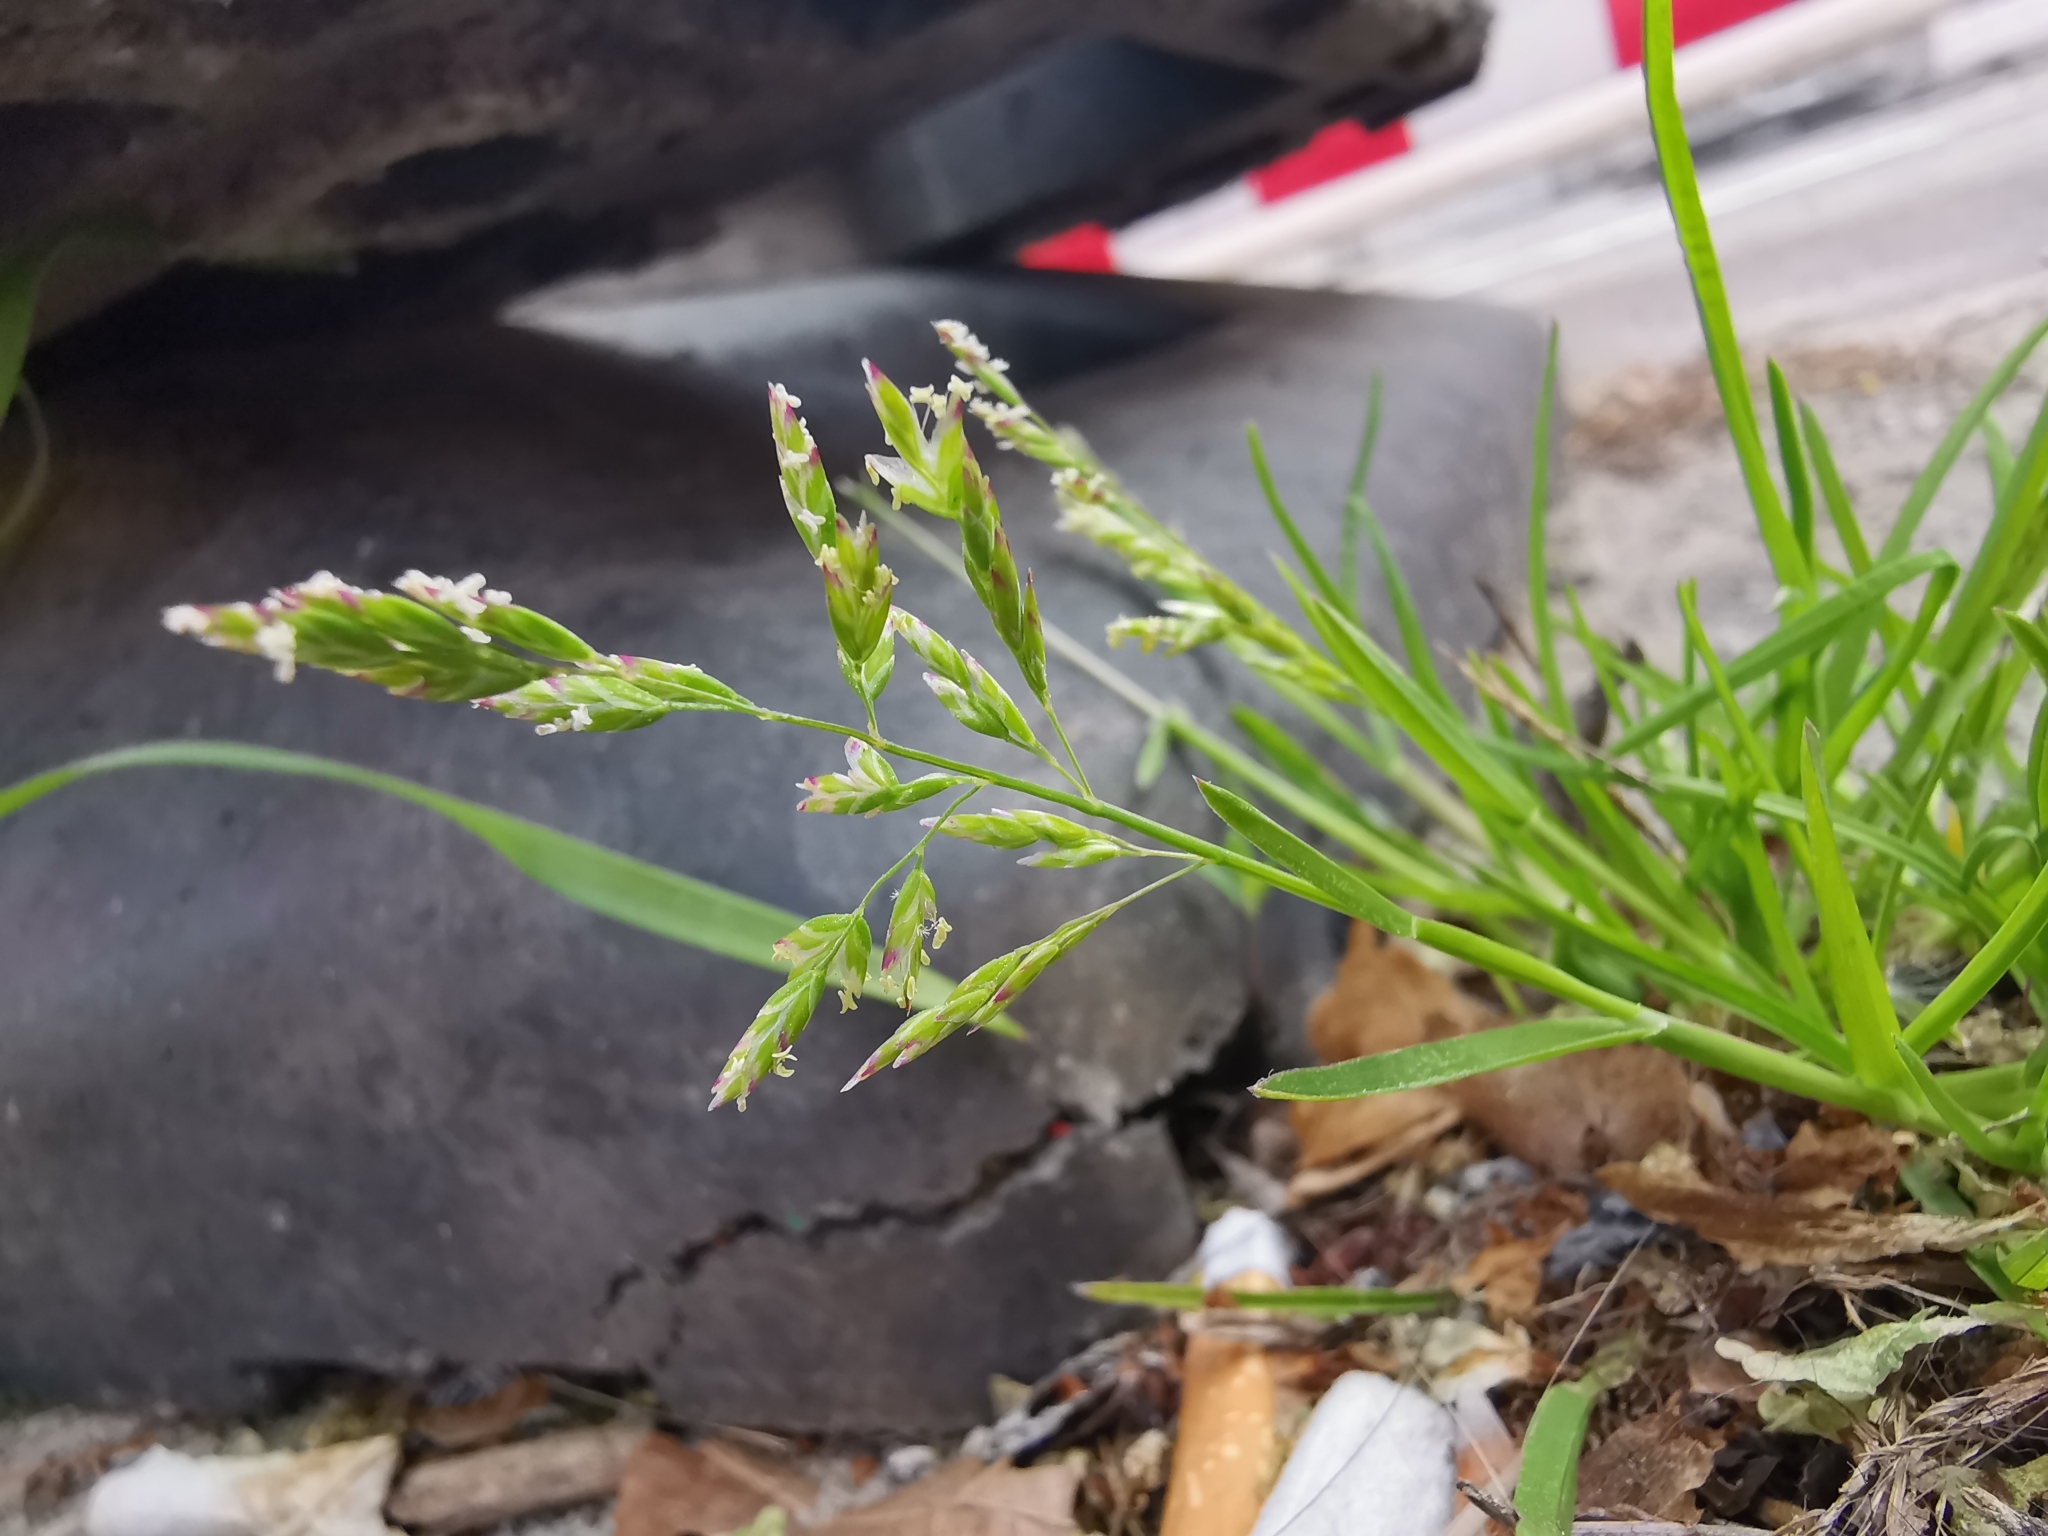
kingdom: Plantae
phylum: Tracheophyta
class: Liliopsida
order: Poales
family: Poaceae
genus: Poa
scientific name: Poa annua
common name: Annual bluegrass
